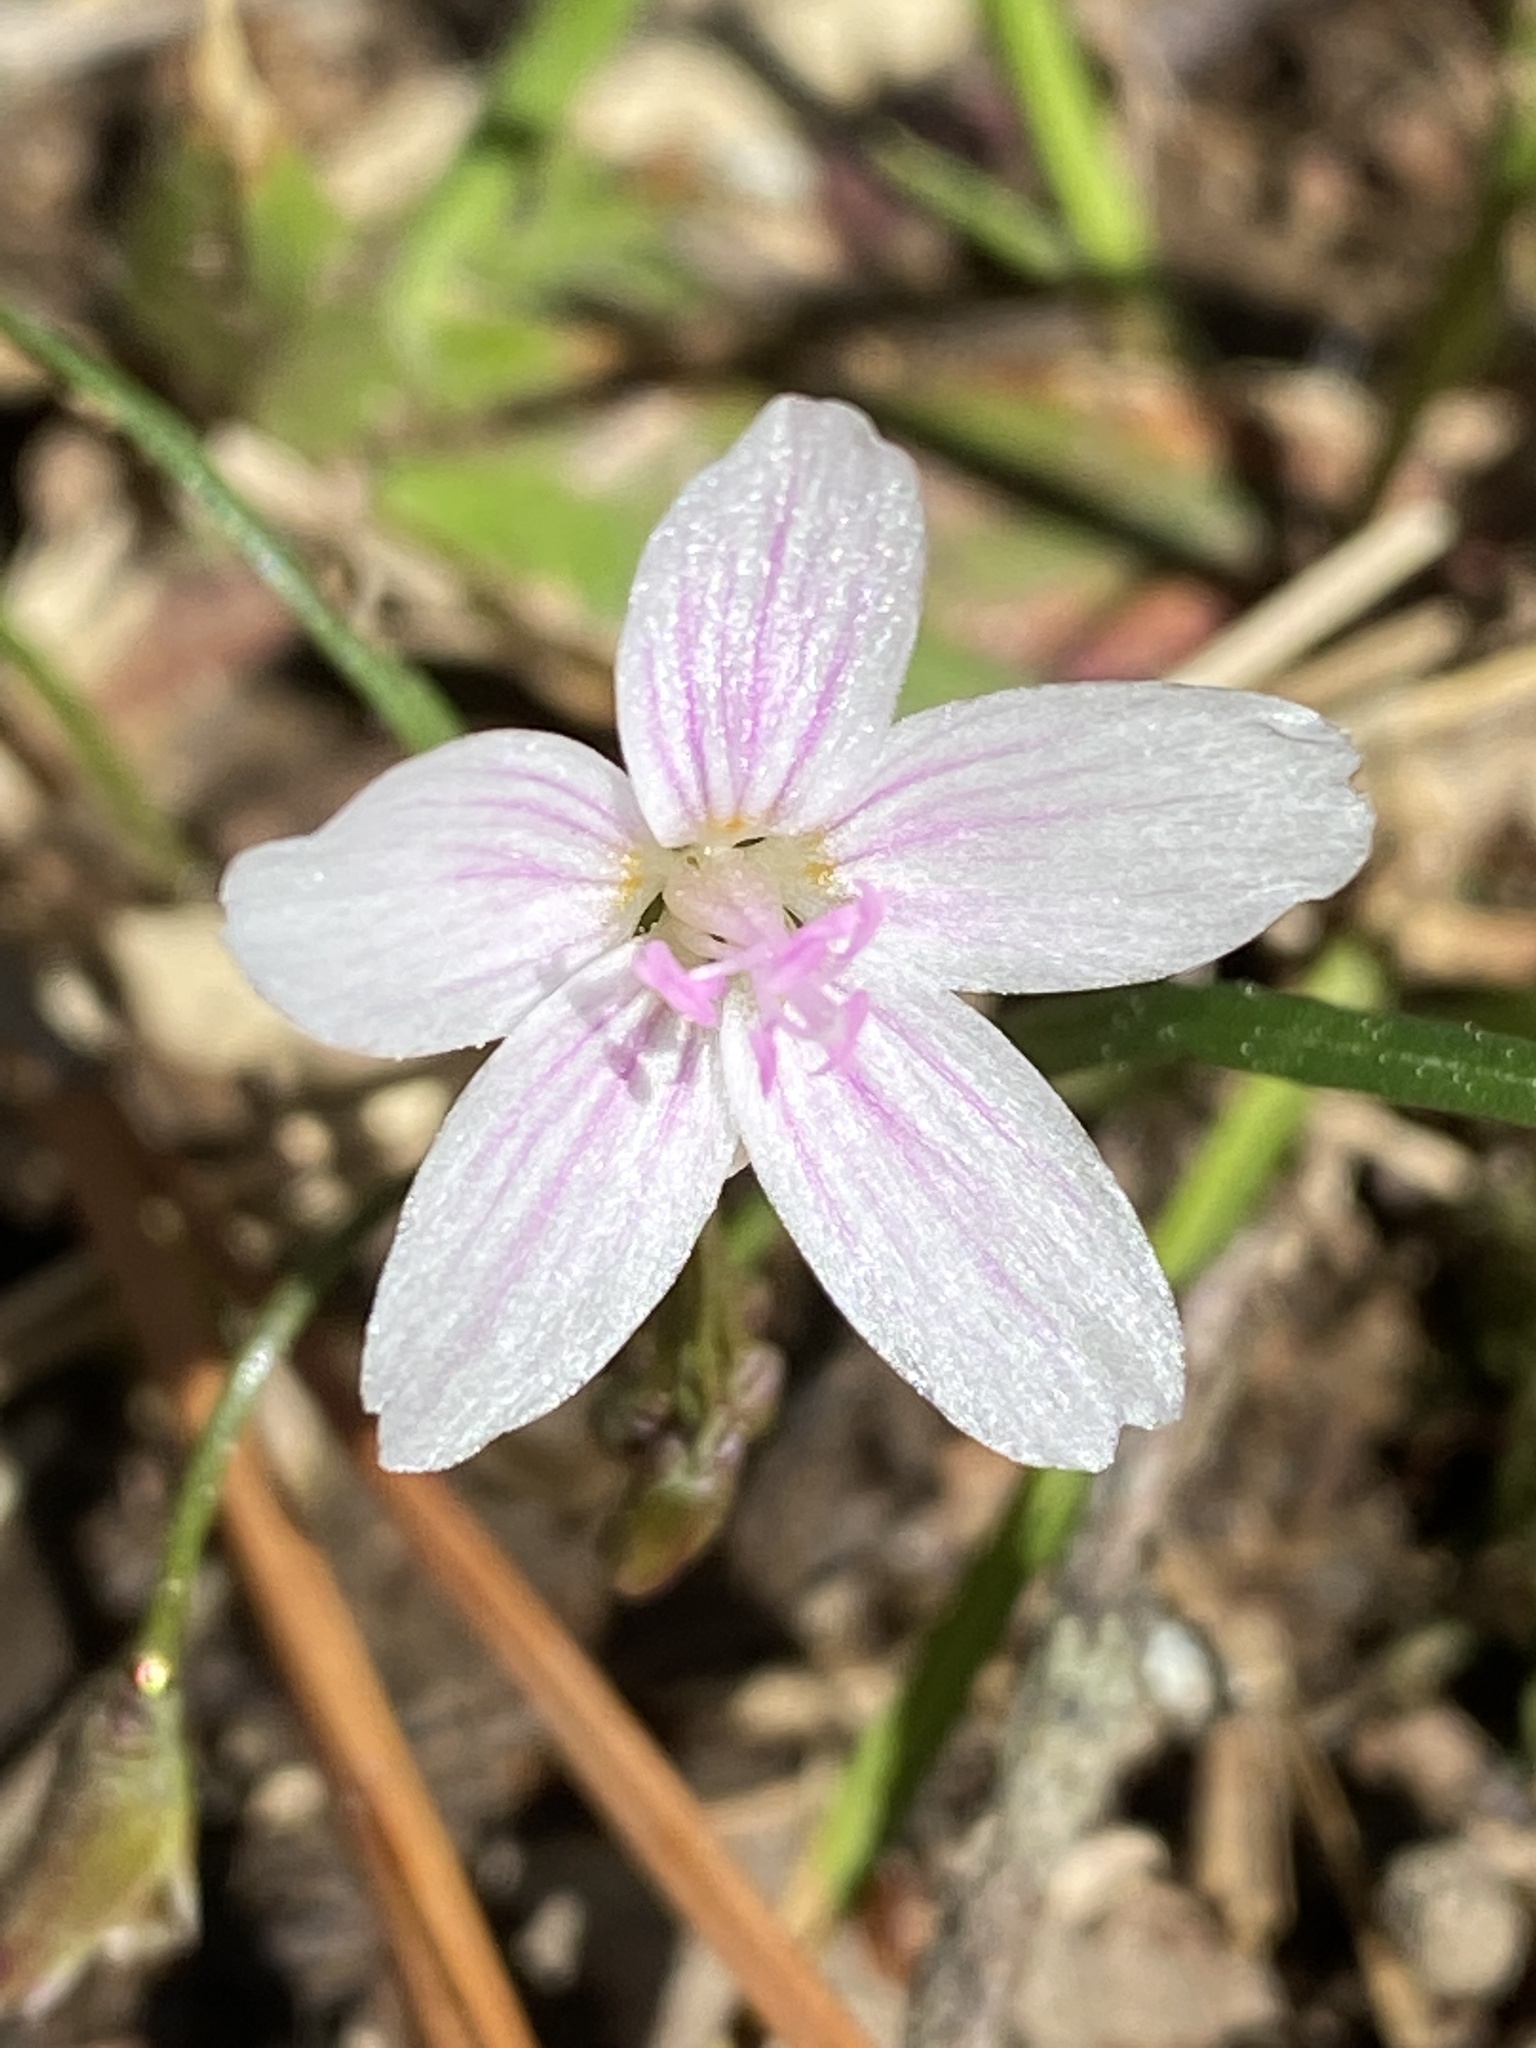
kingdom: Plantae
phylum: Tracheophyta
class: Magnoliopsida
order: Caryophyllales
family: Montiaceae
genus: Claytonia
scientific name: Claytonia virginica
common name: Virginia springbeauty
